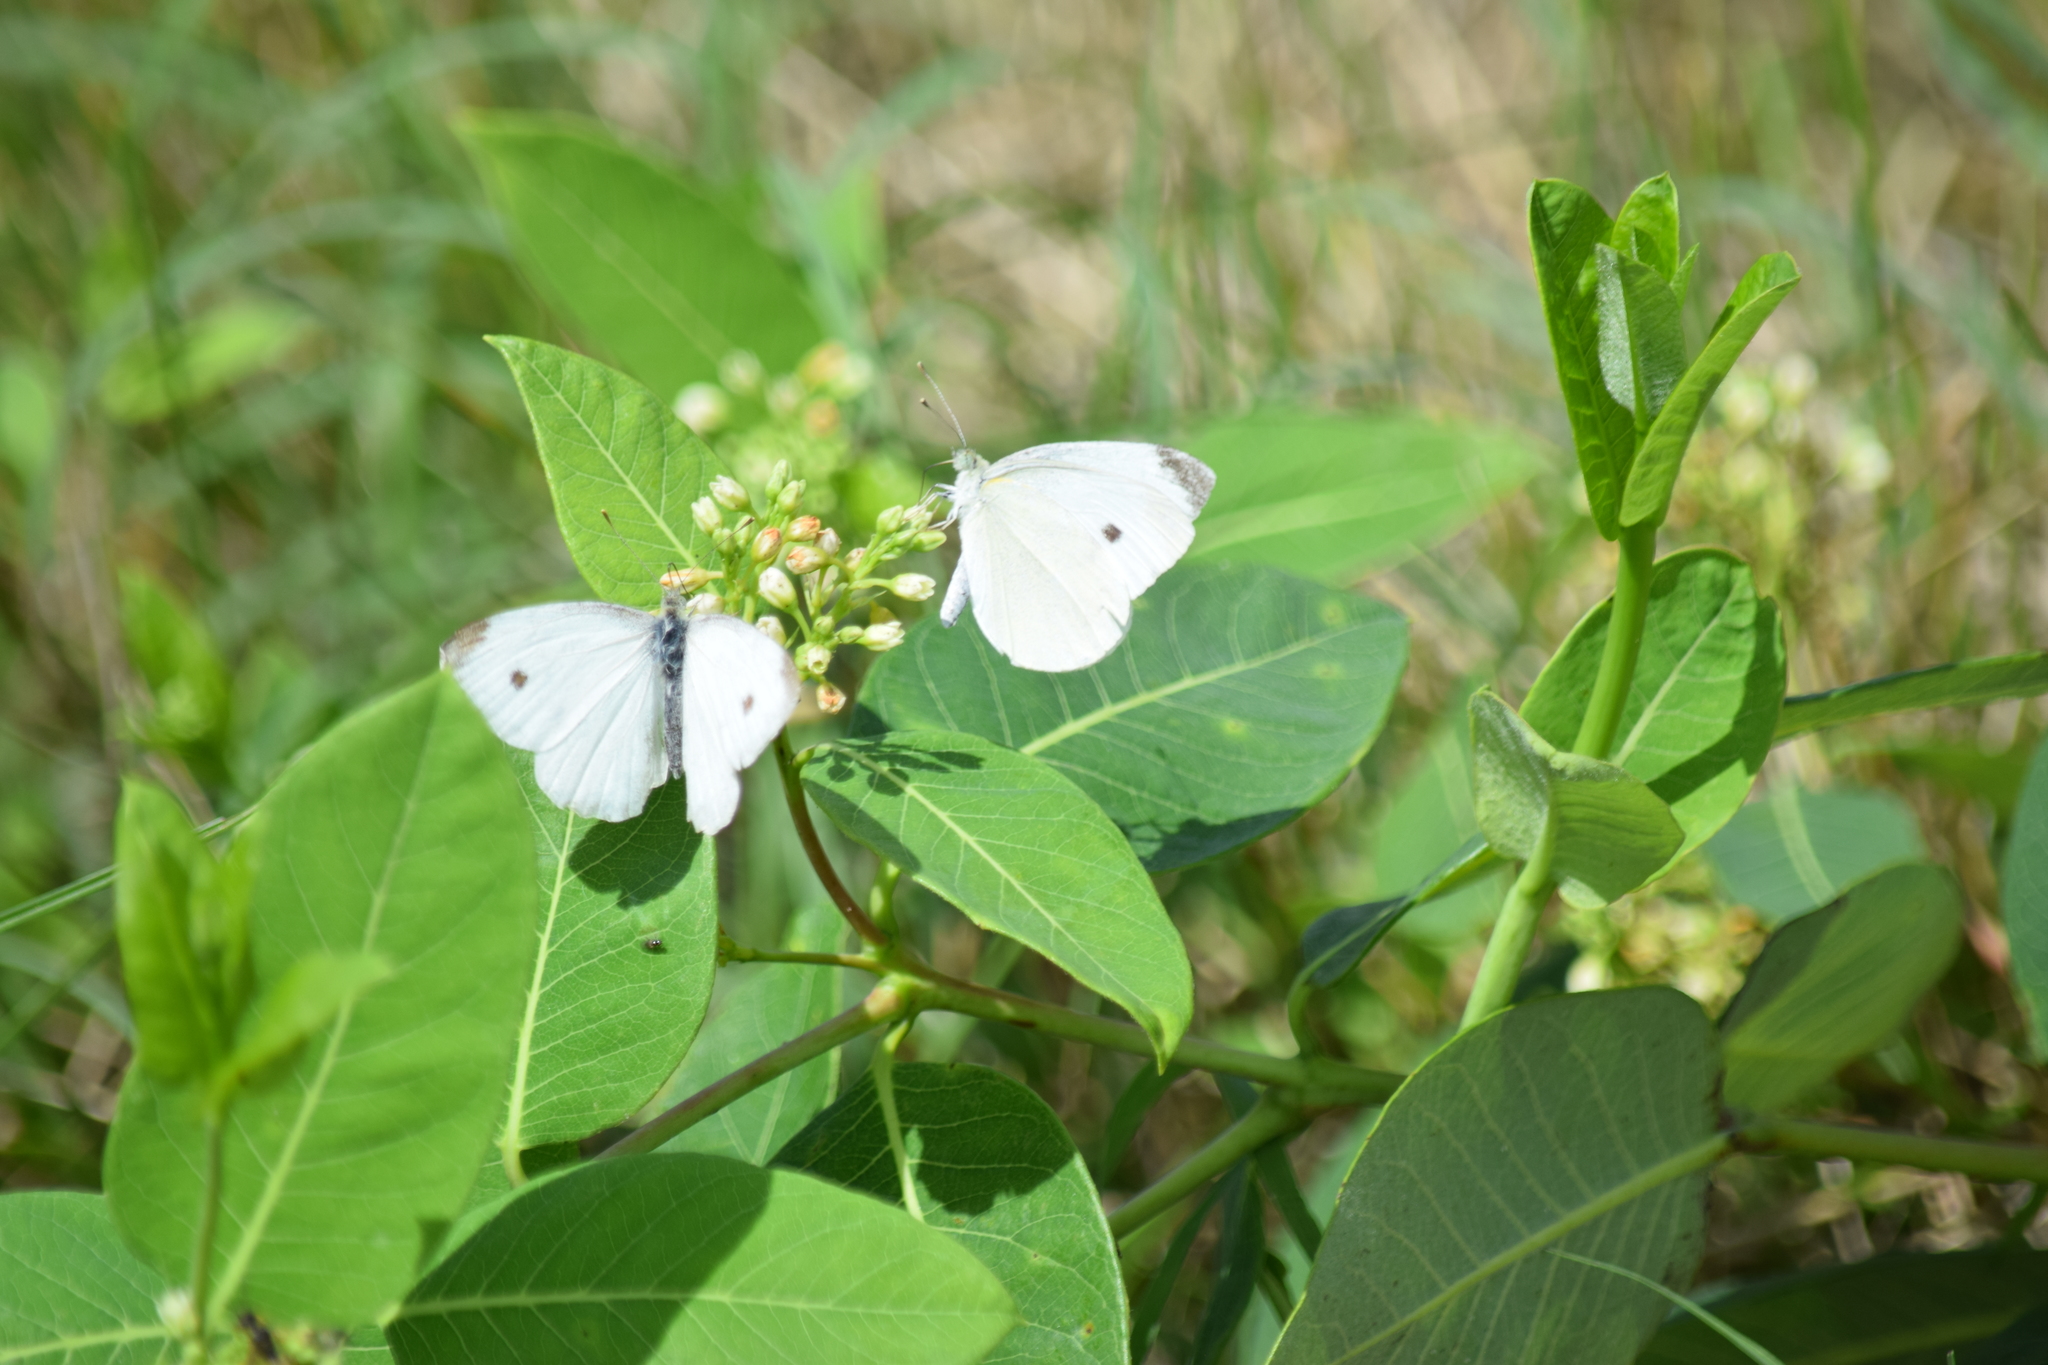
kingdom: Animalia
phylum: Arthropoda
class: Insecta
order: Lepidoptera
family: Pieridae
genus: Pieris
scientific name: Pieris rapae
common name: Small white
